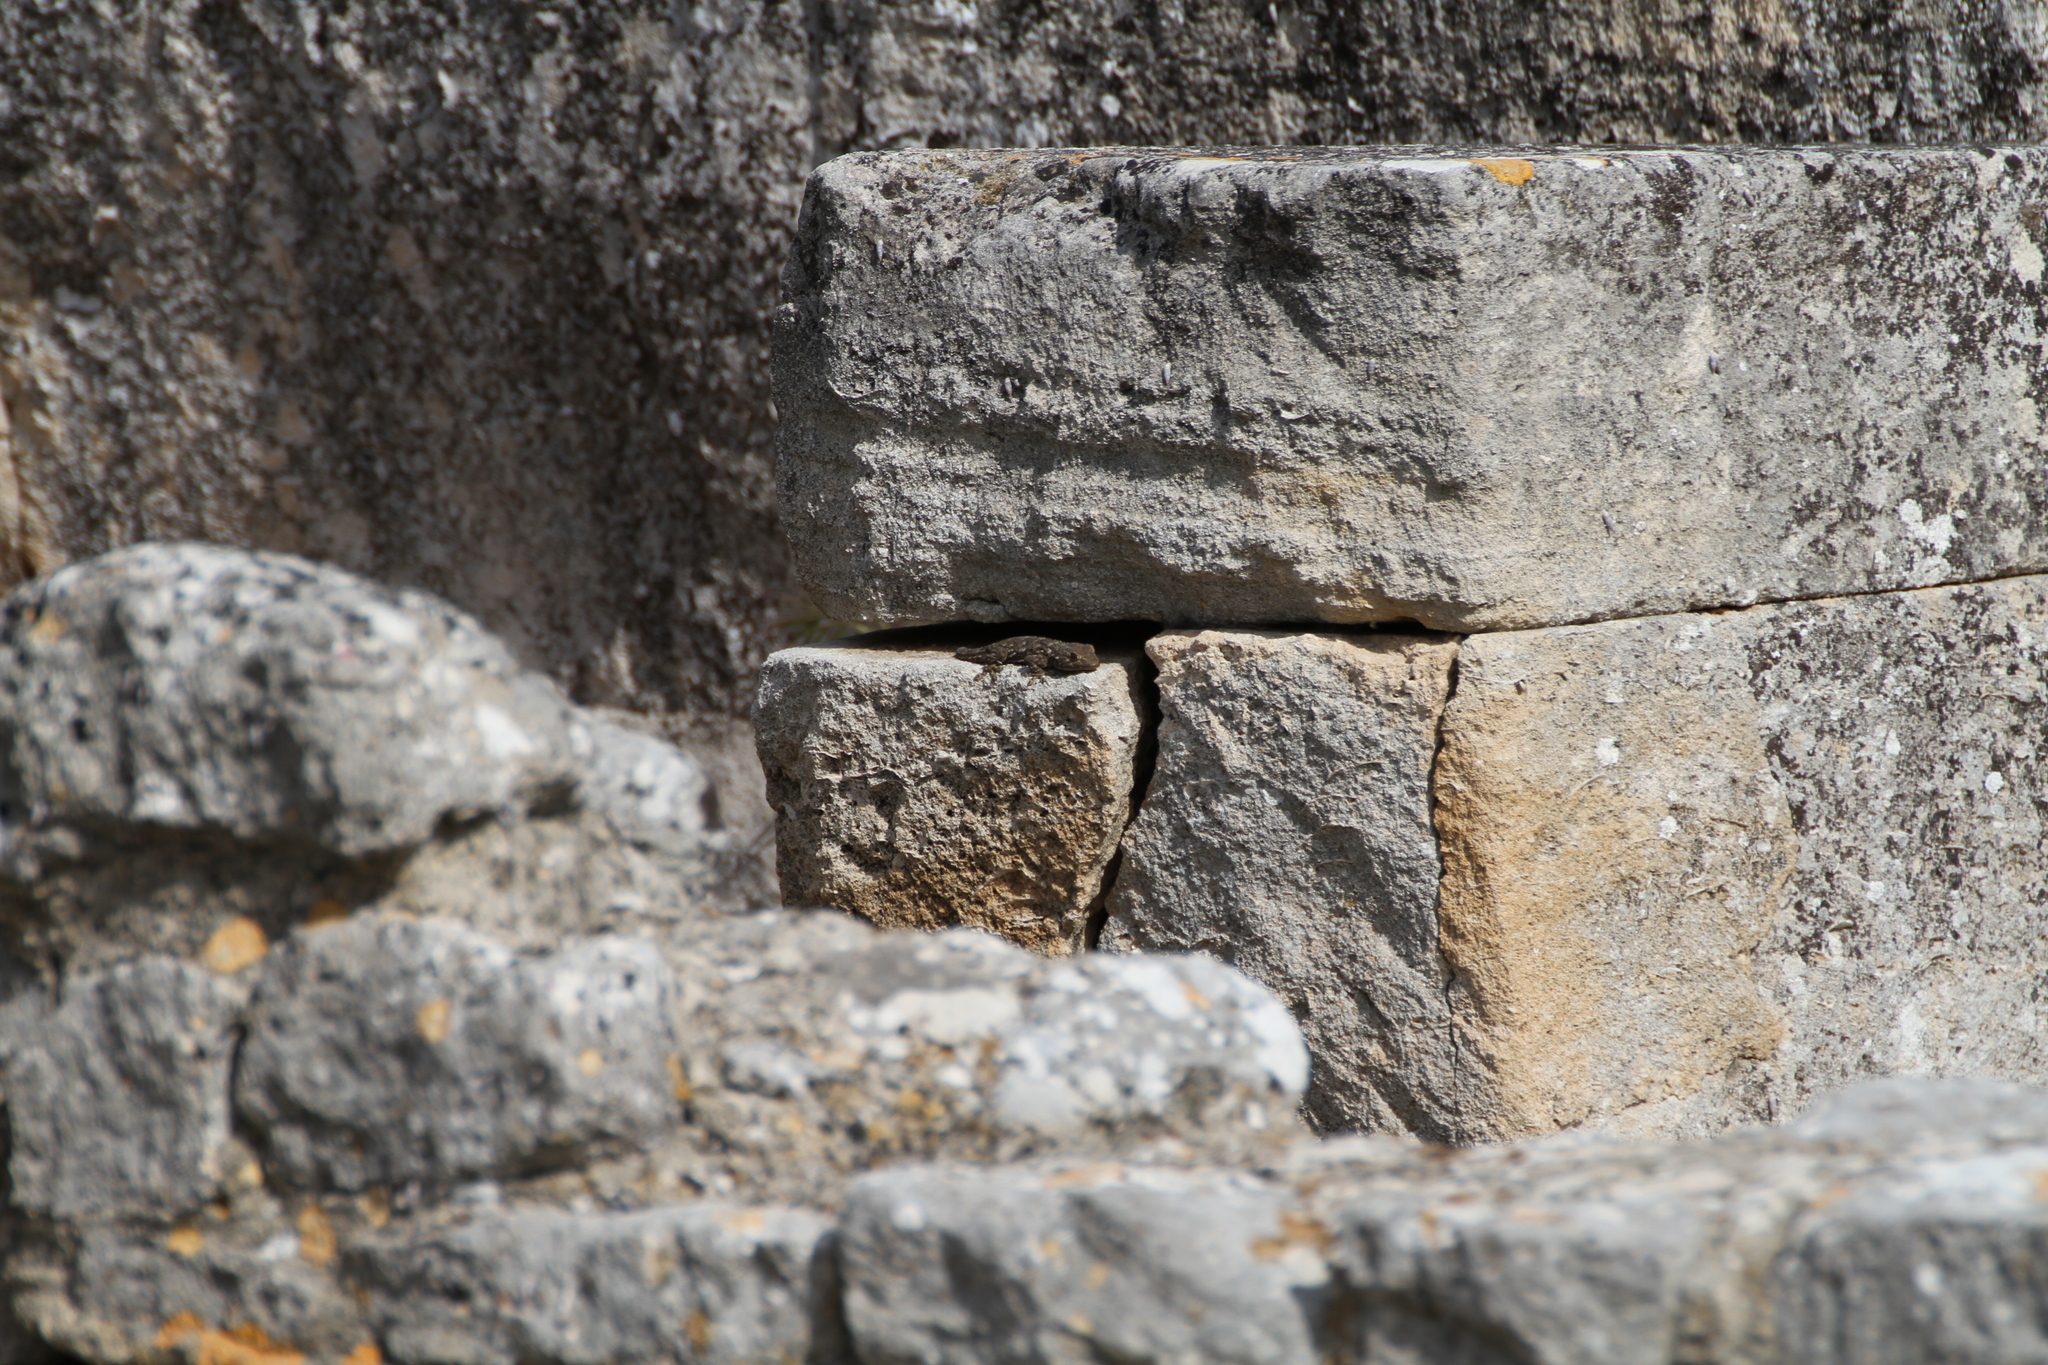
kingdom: Animalia
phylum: Chordata
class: Squamata
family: Phyllodactylidae
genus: Tarentola
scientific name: Tarentola mauritanica
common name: Moorish gecko
